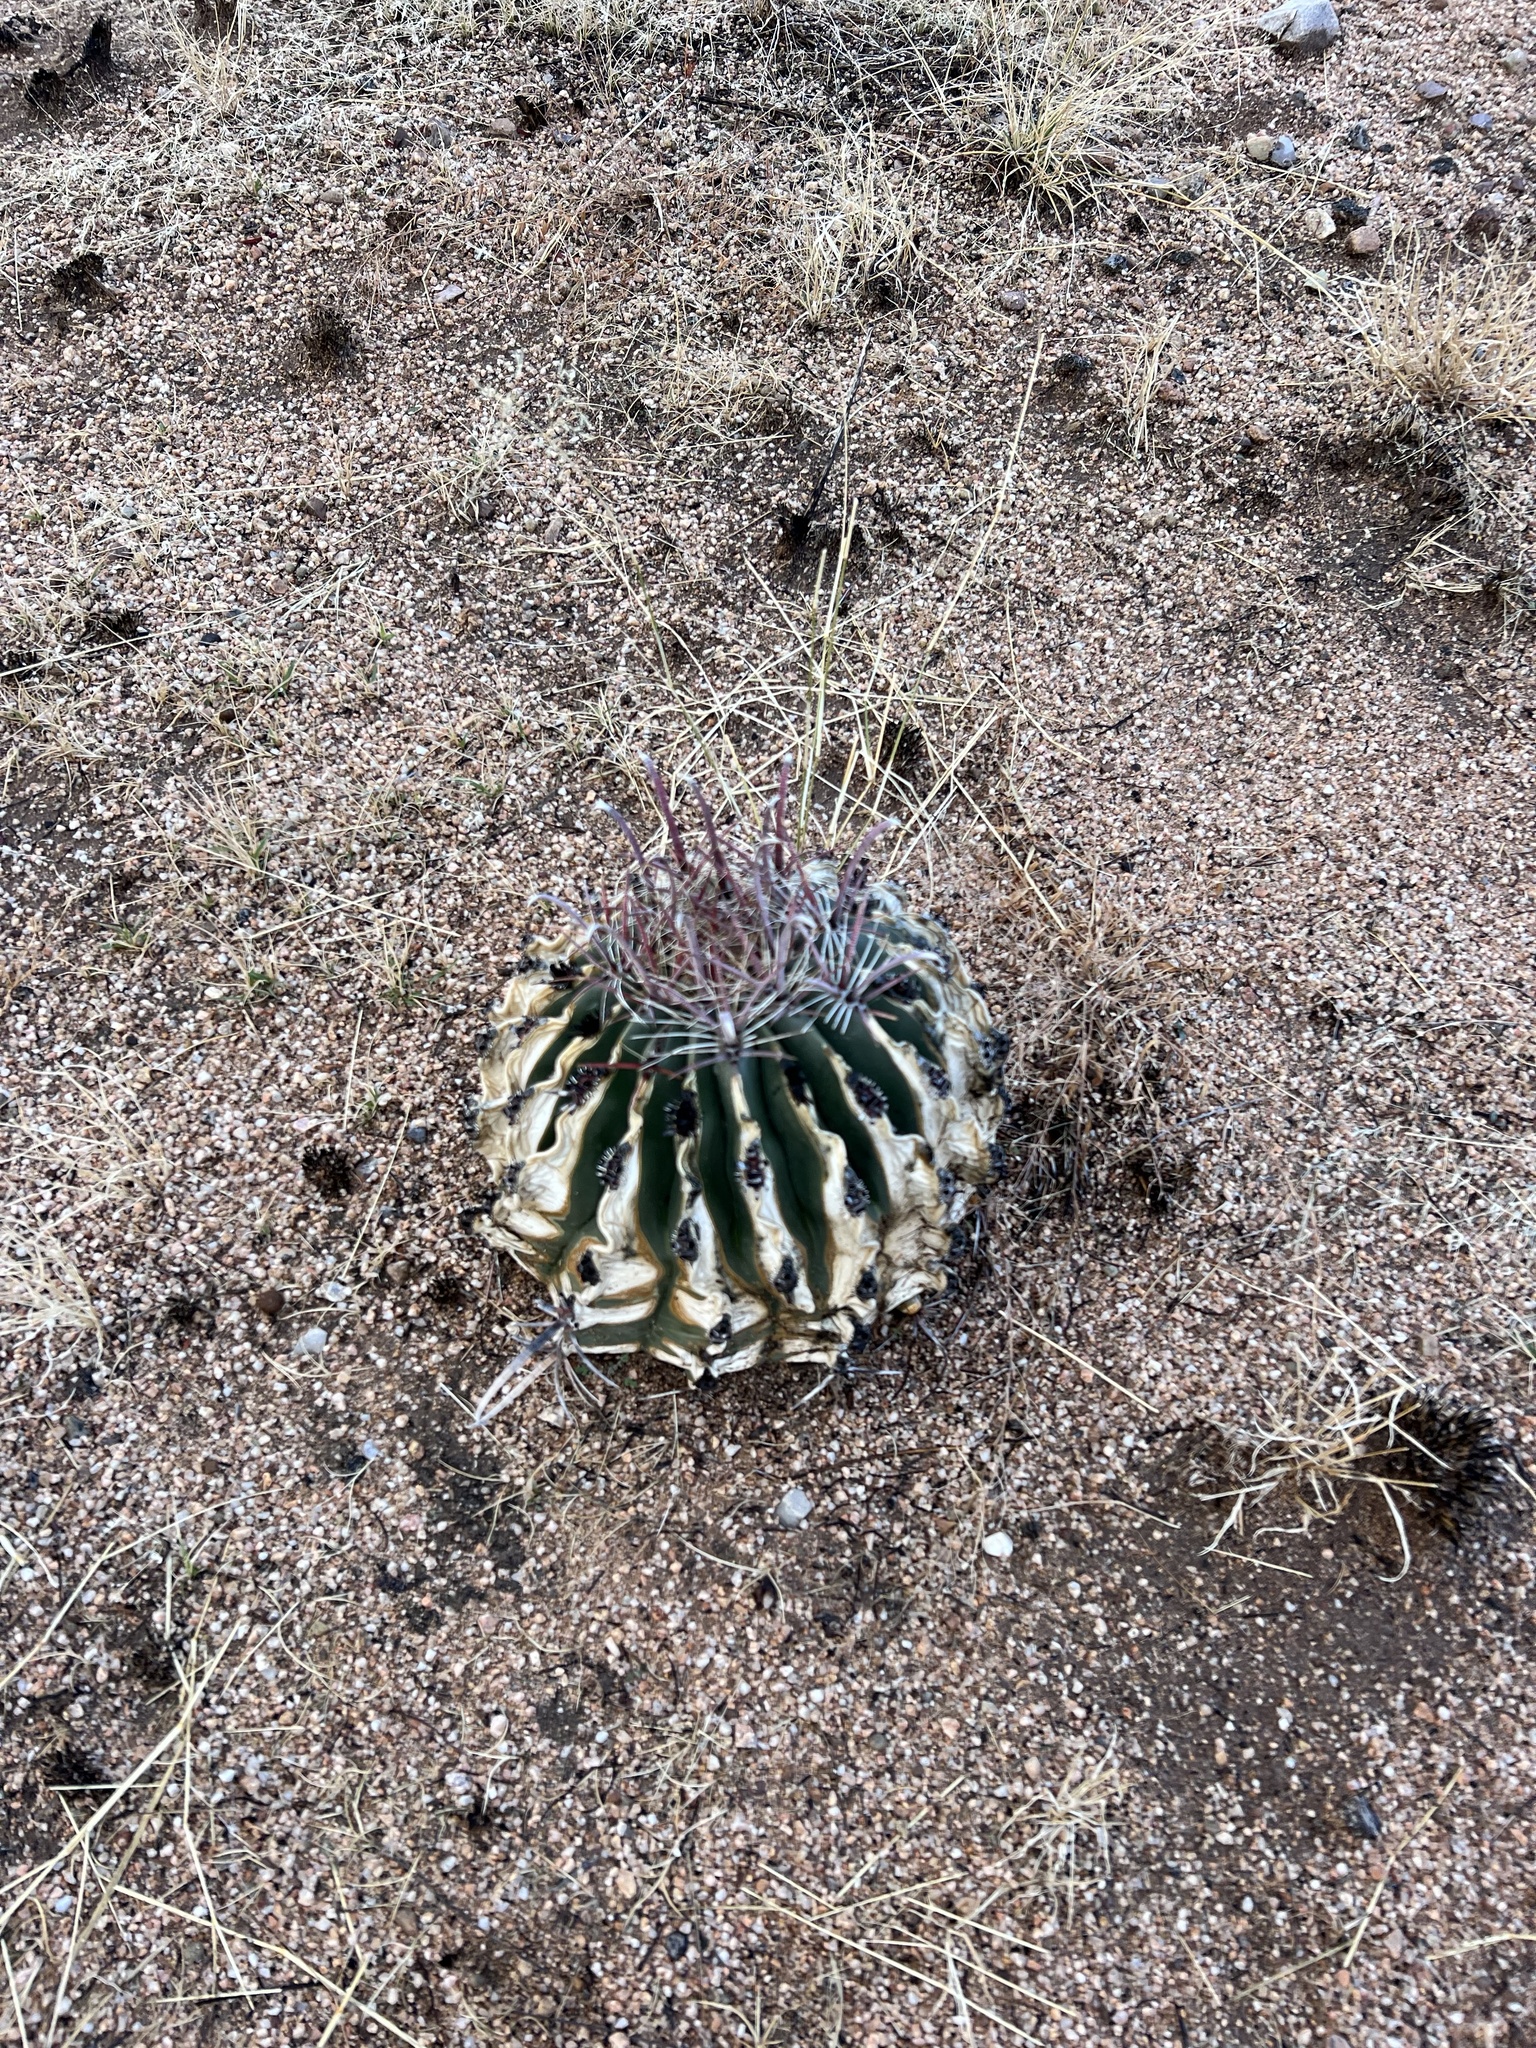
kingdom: Plantae
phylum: Tracheophyta
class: Magnoliopsida
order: Caryophyllales
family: Cactaceae
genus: Ferocactus
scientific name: Ferocactus wislizeni
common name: Candy barrel cactus
